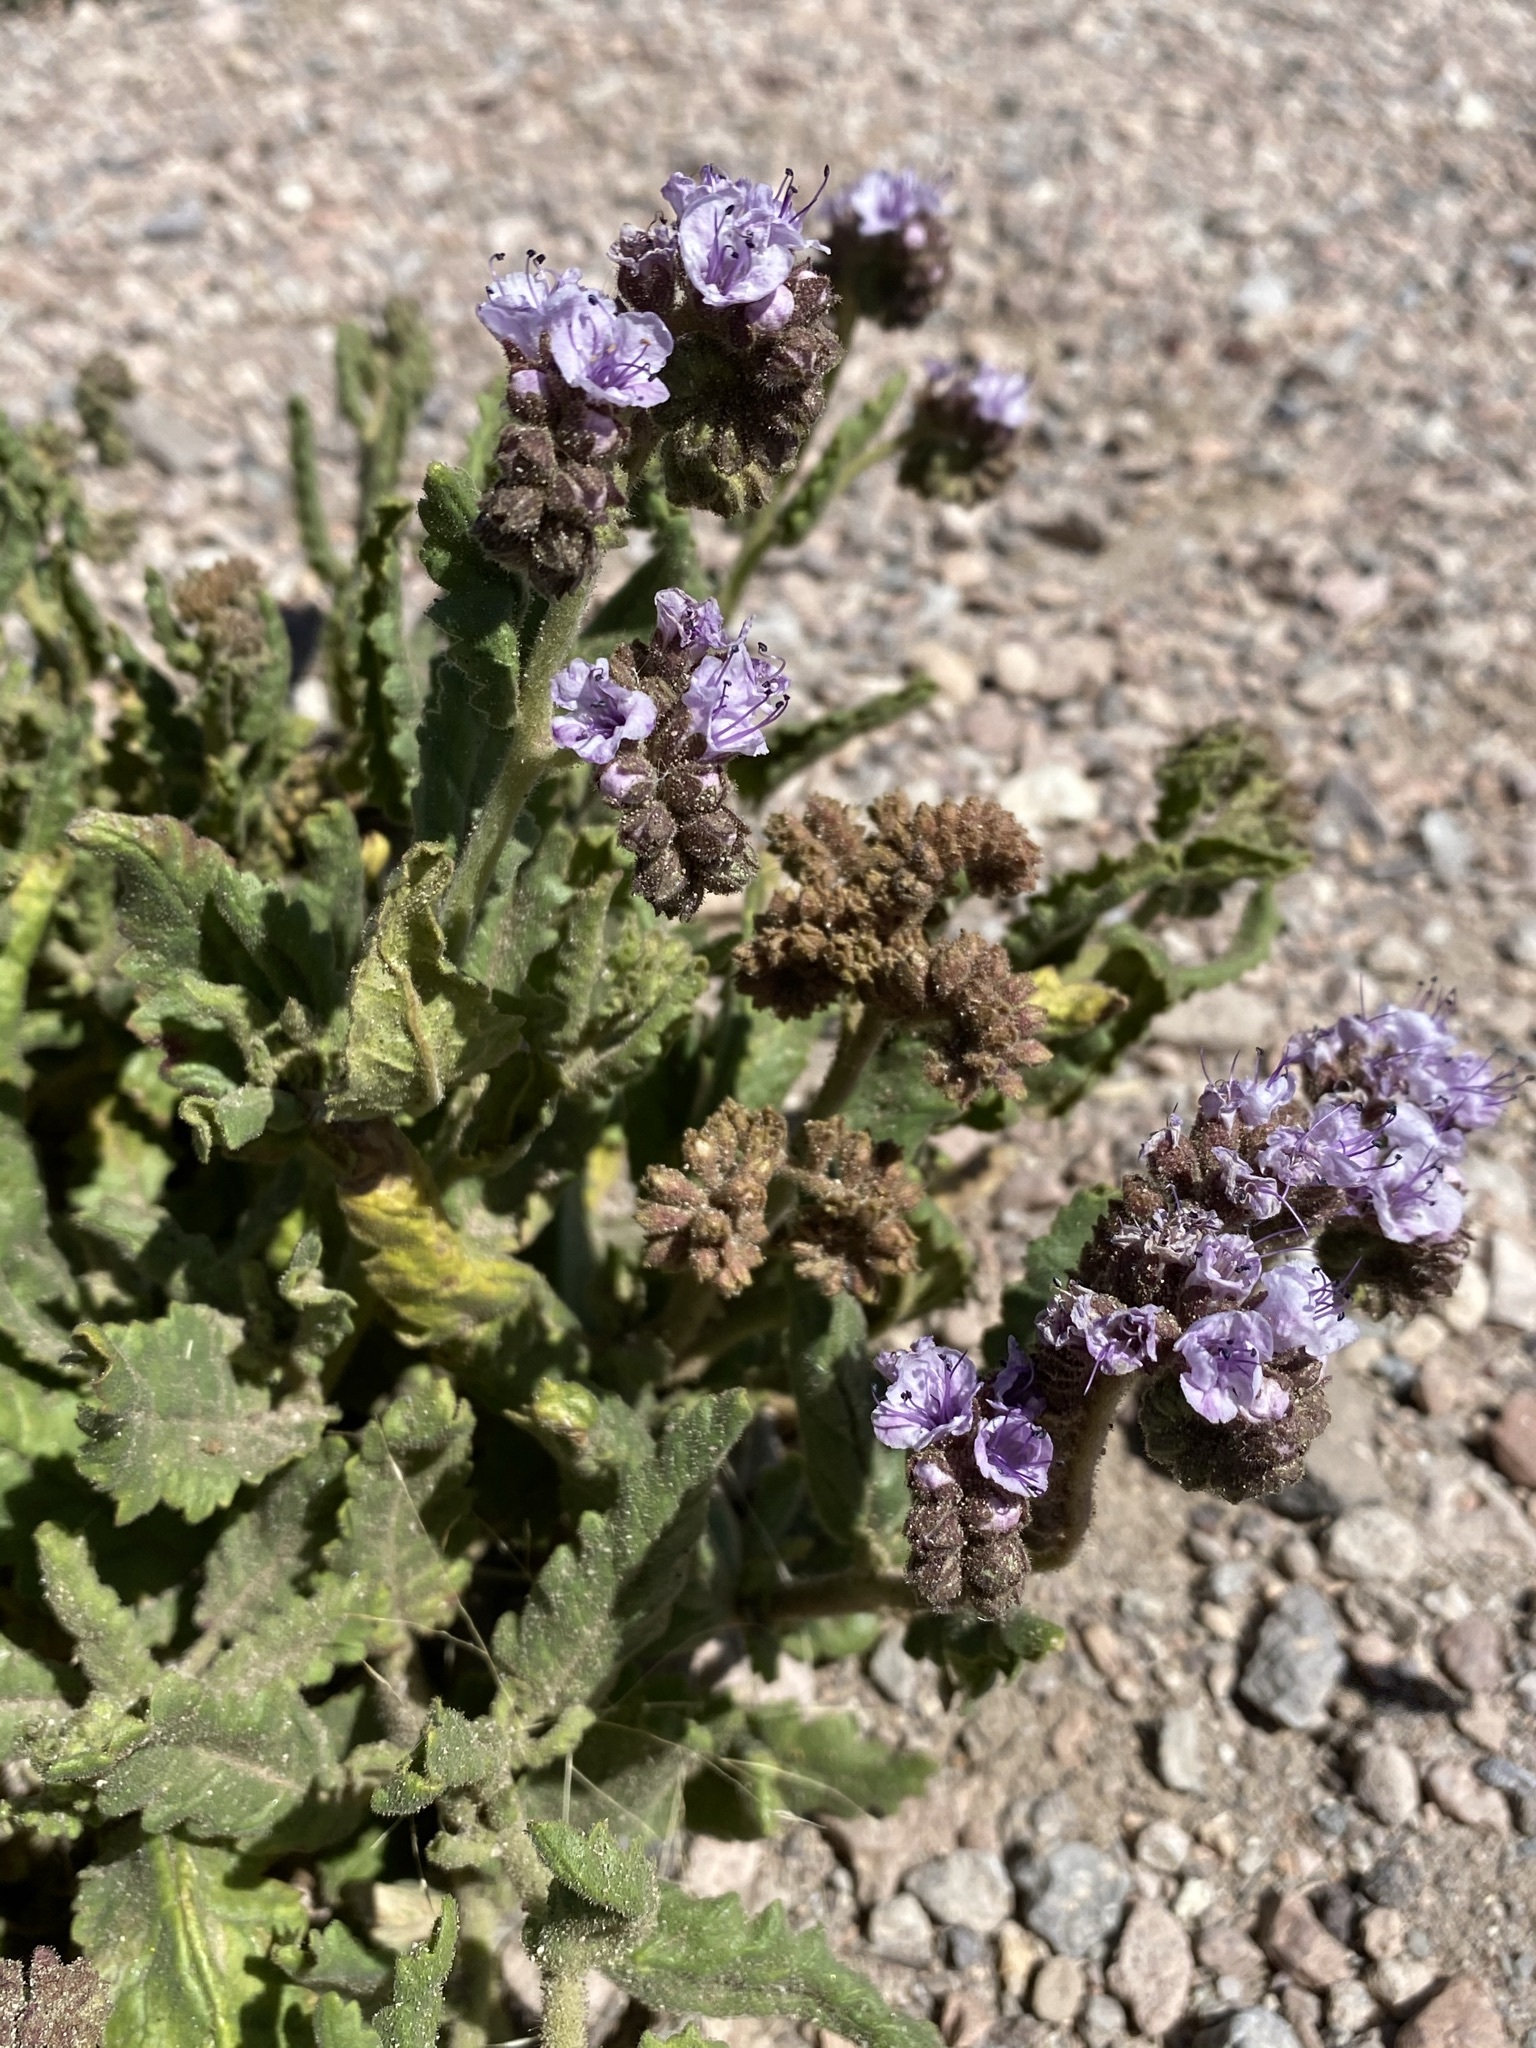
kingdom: Plantae
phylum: Tracheophyta
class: Magnoliopsida
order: Boraginales
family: Hydrophyllaceae
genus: Phacelia
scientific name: Phacelia integrifolia
